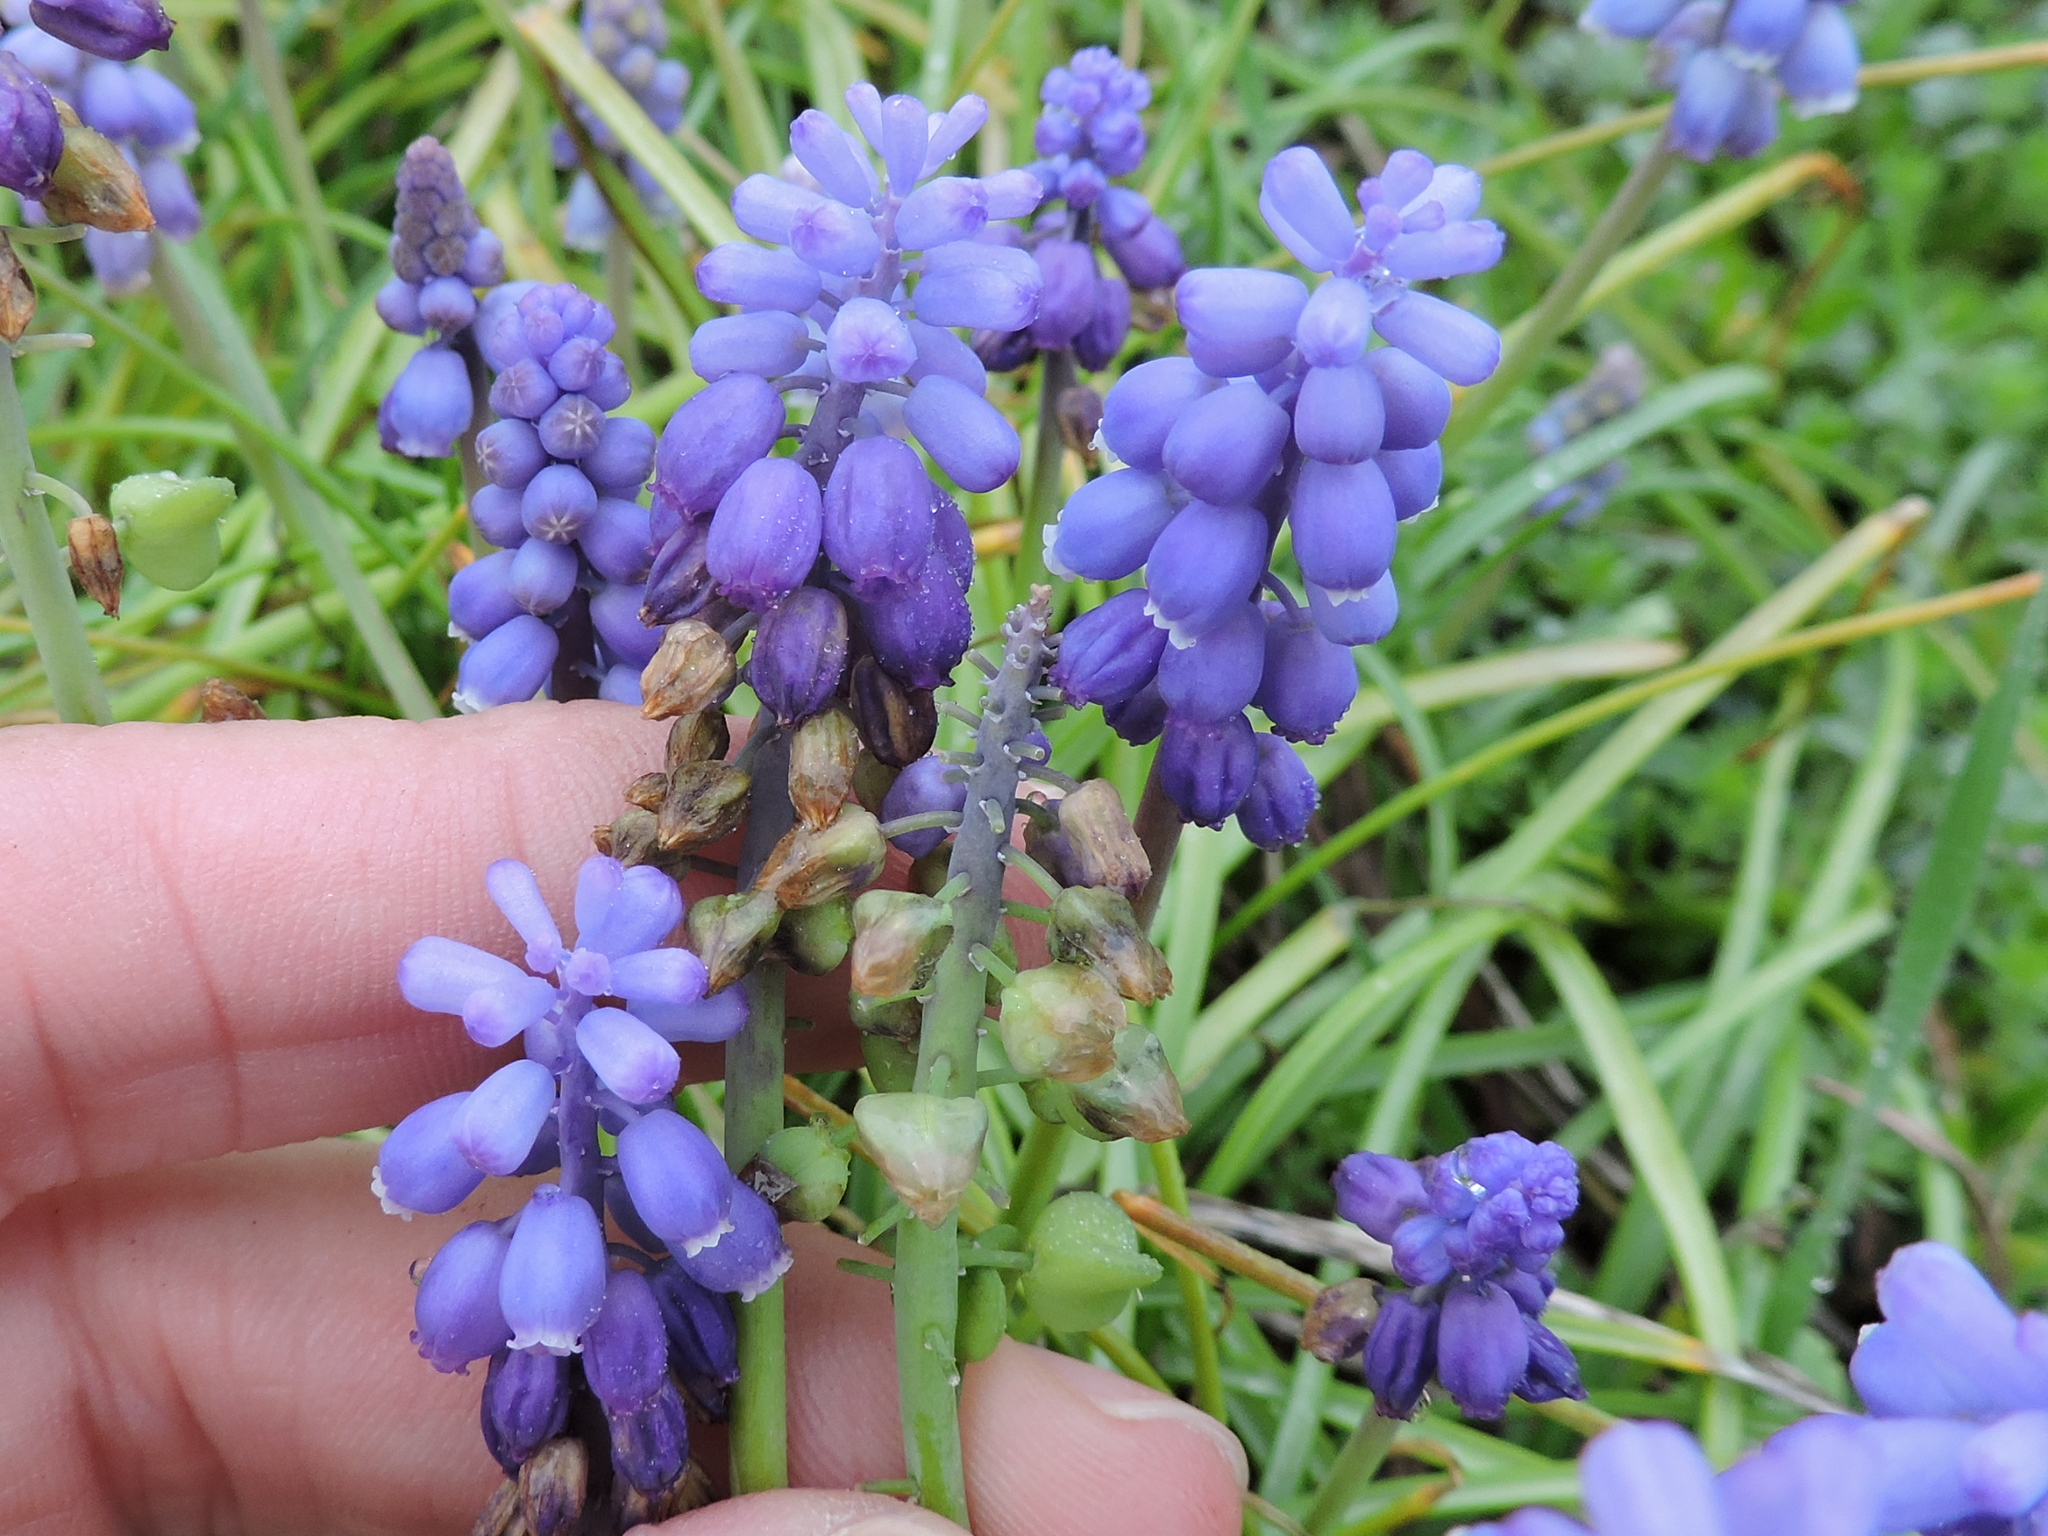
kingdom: Plantae
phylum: Tracheophyta
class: Liliopsida
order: Asparagales
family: Asparagaceae
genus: Muscari
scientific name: Muscari neglectum
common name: Grape-hyacinth
